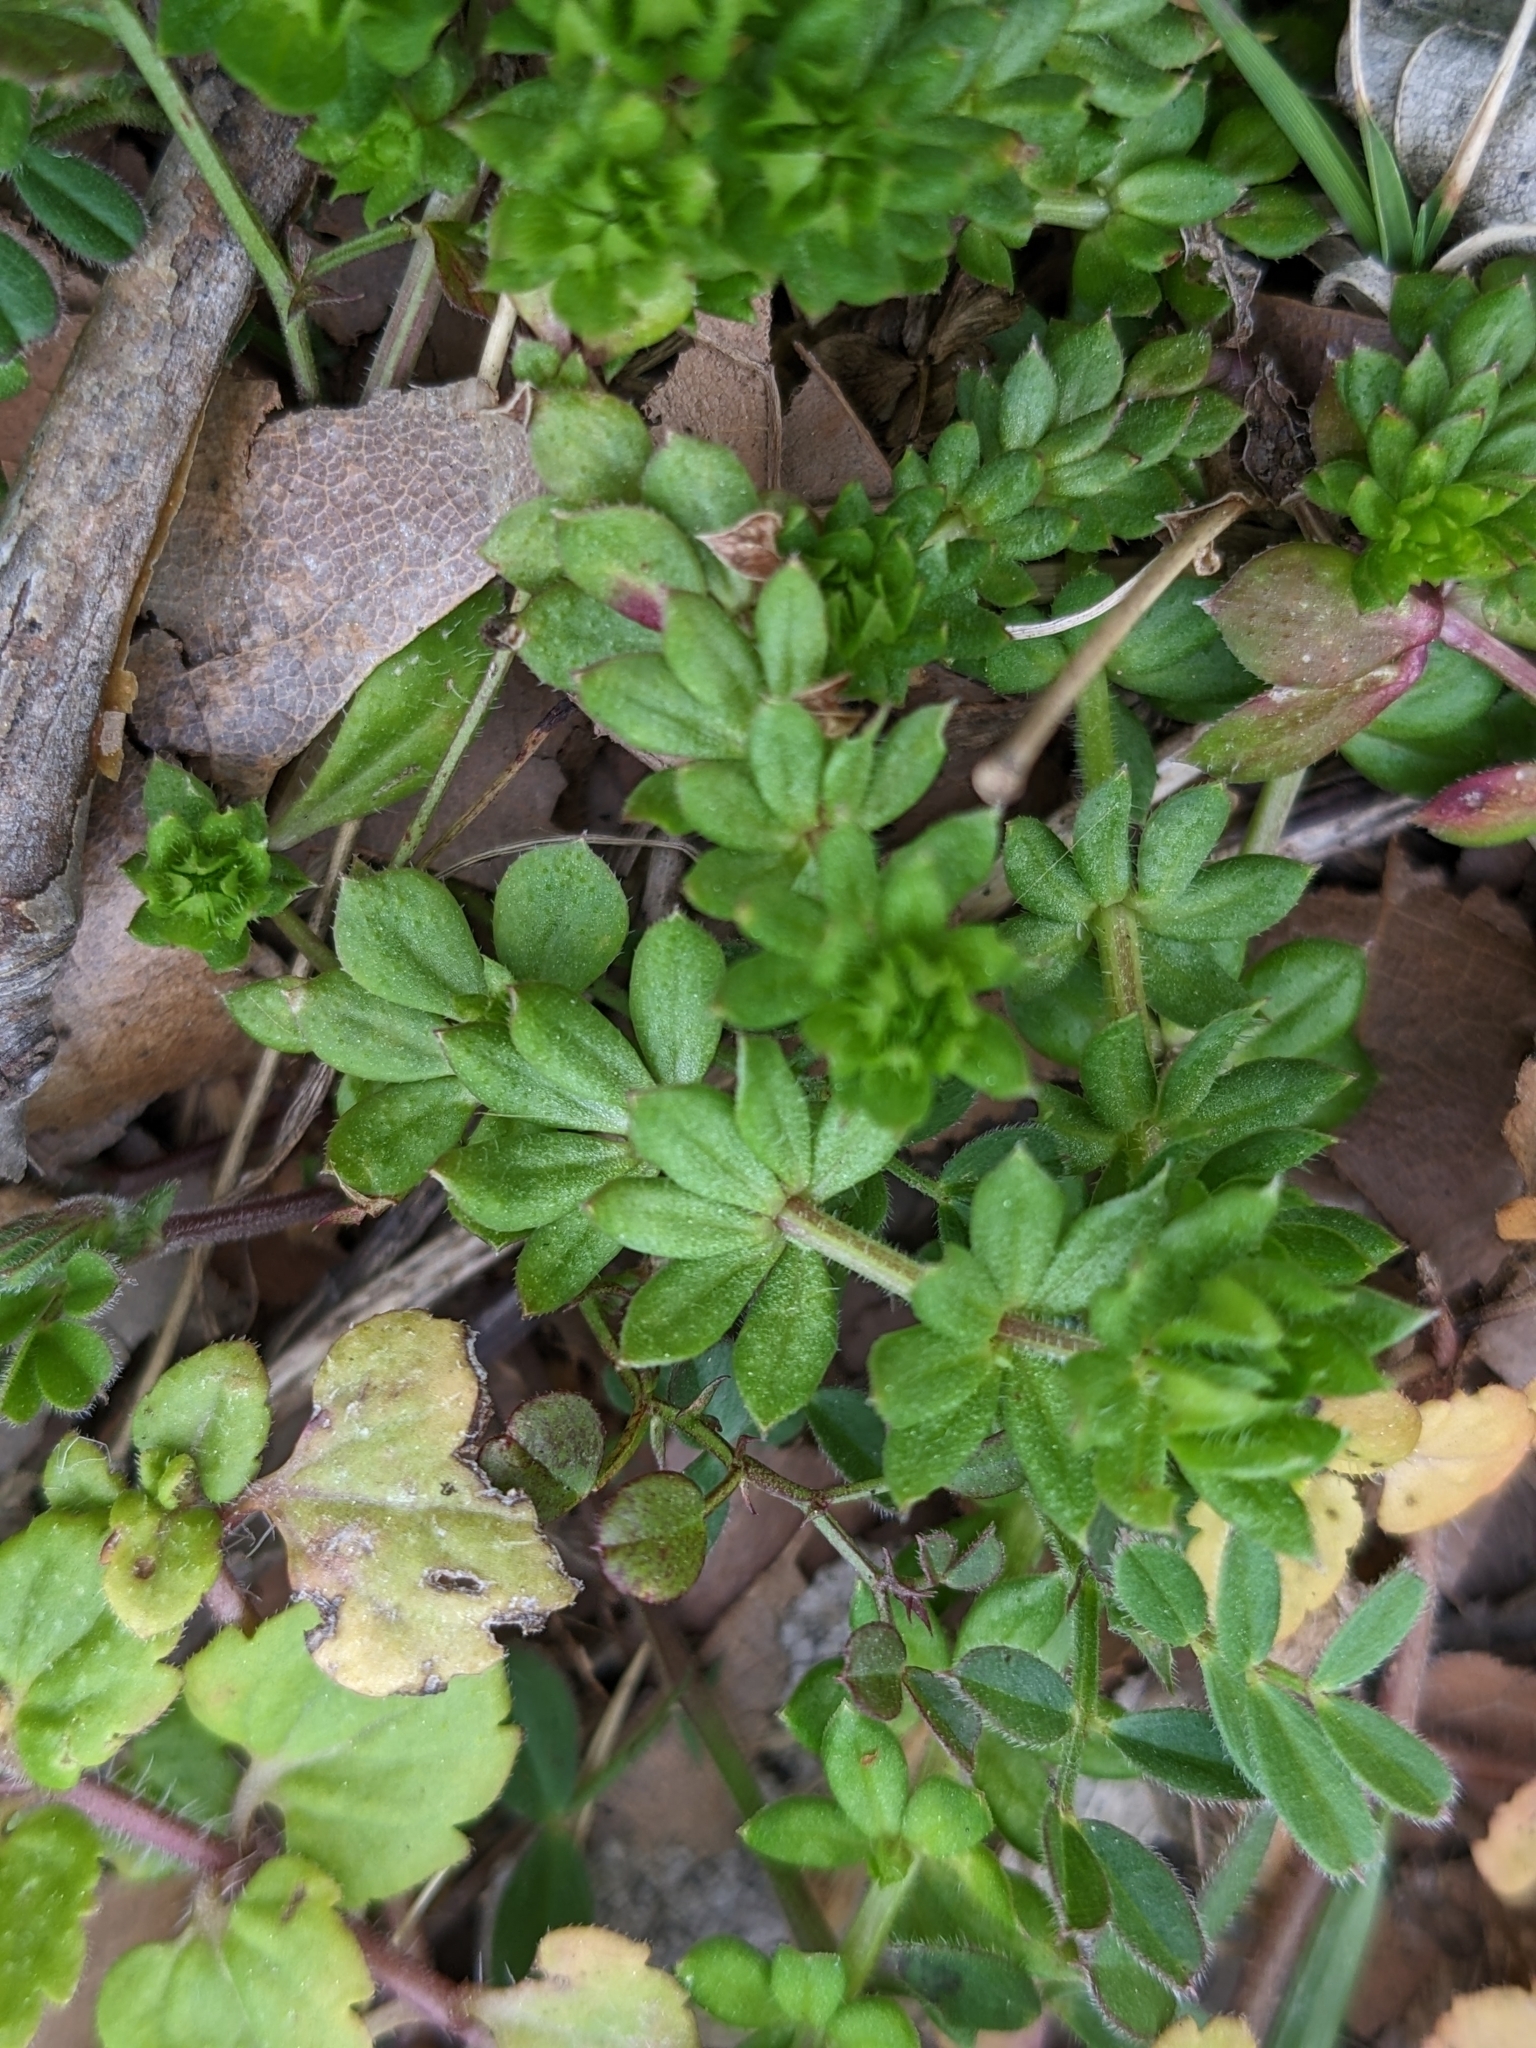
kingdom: Plantae
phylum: Tracheophyta
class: Magnoliopsida
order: Gentianales
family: Rubiaceae
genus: Sherardia
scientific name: Sherardia arvensis
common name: Field madder
